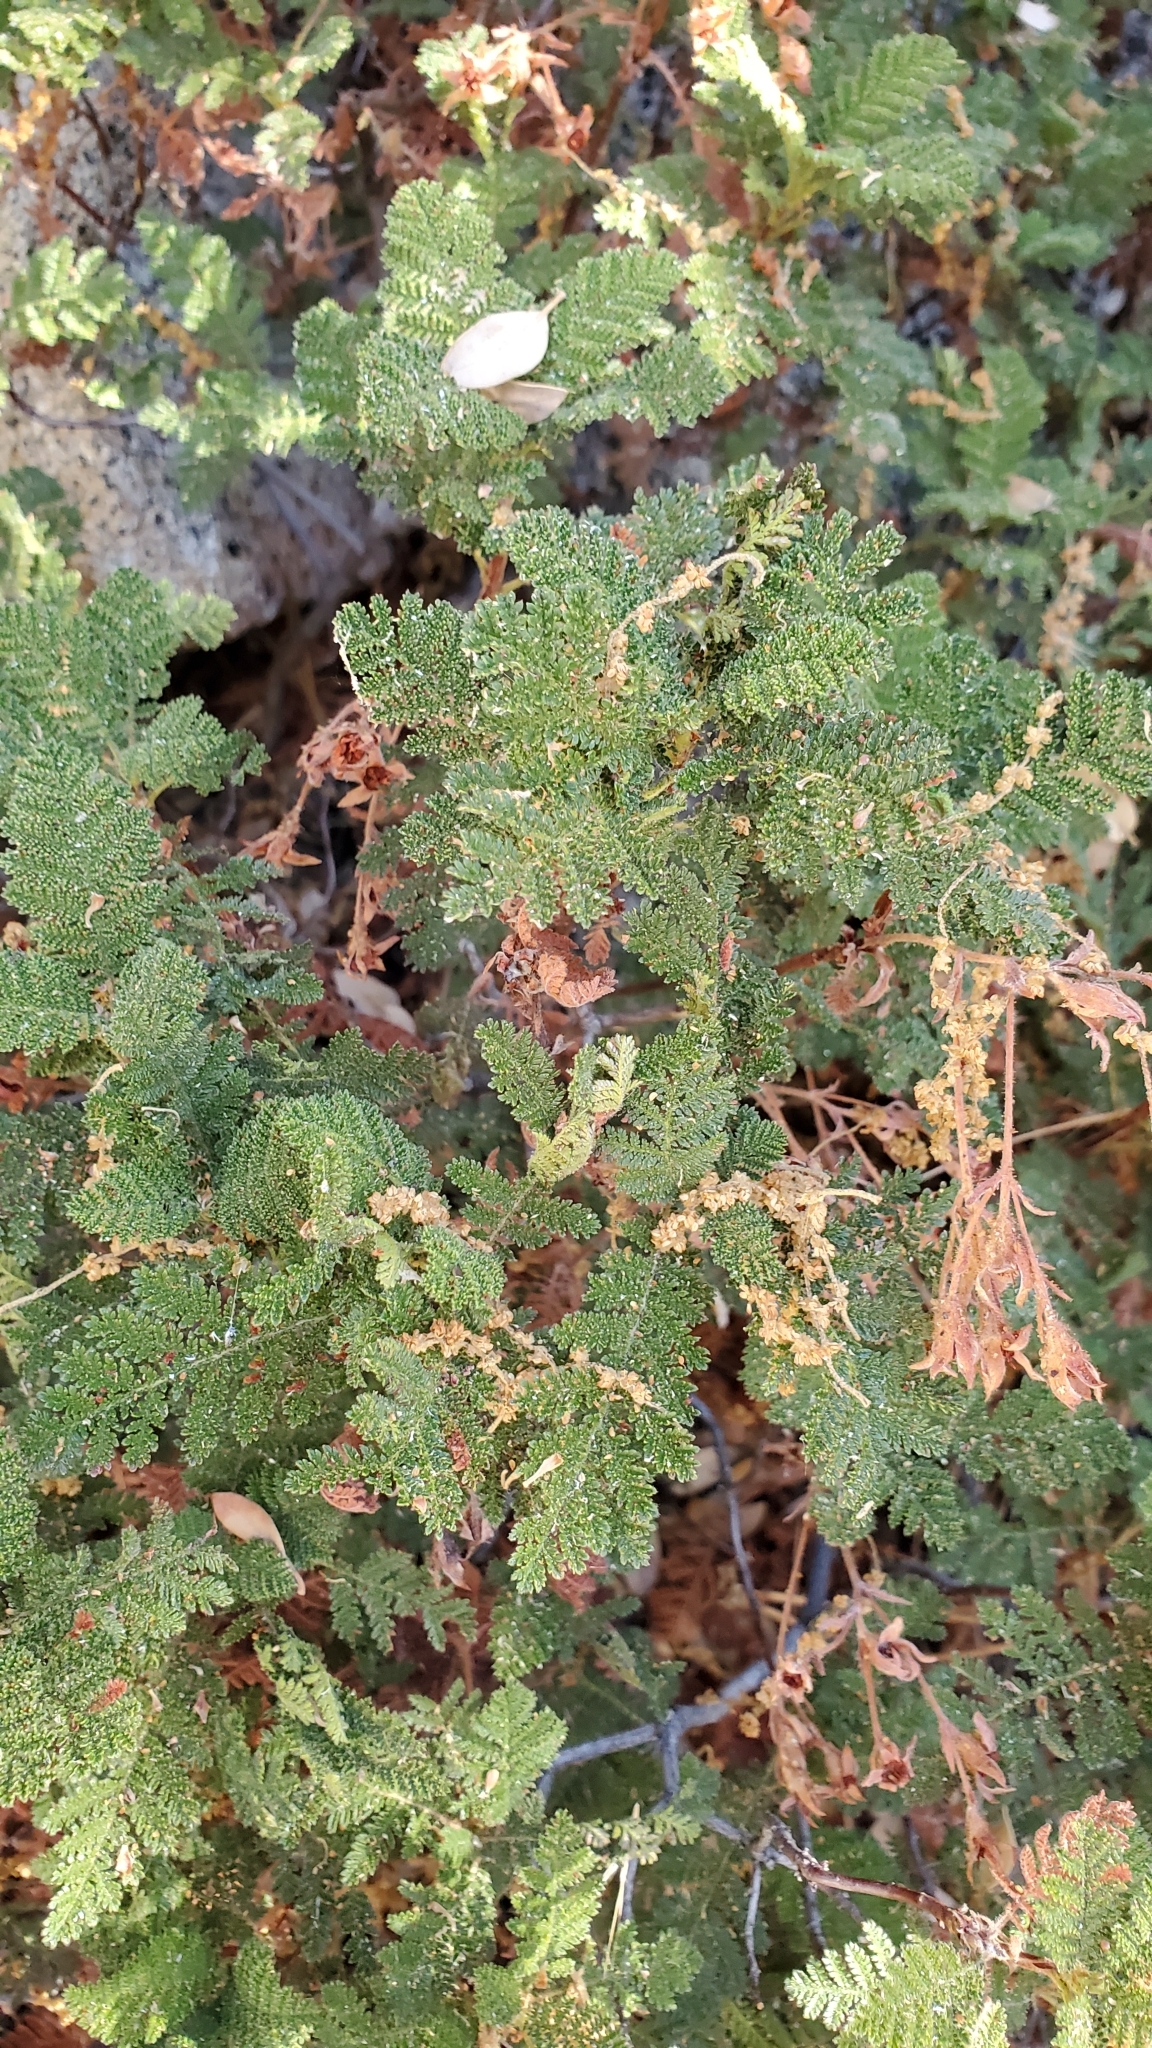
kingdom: Plantae
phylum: Tracheophyta
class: Magnoliopsida
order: Rosales
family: Rosaceae
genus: Chamaebatia
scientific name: Chamaebatia foliolosa
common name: Mountain misery
